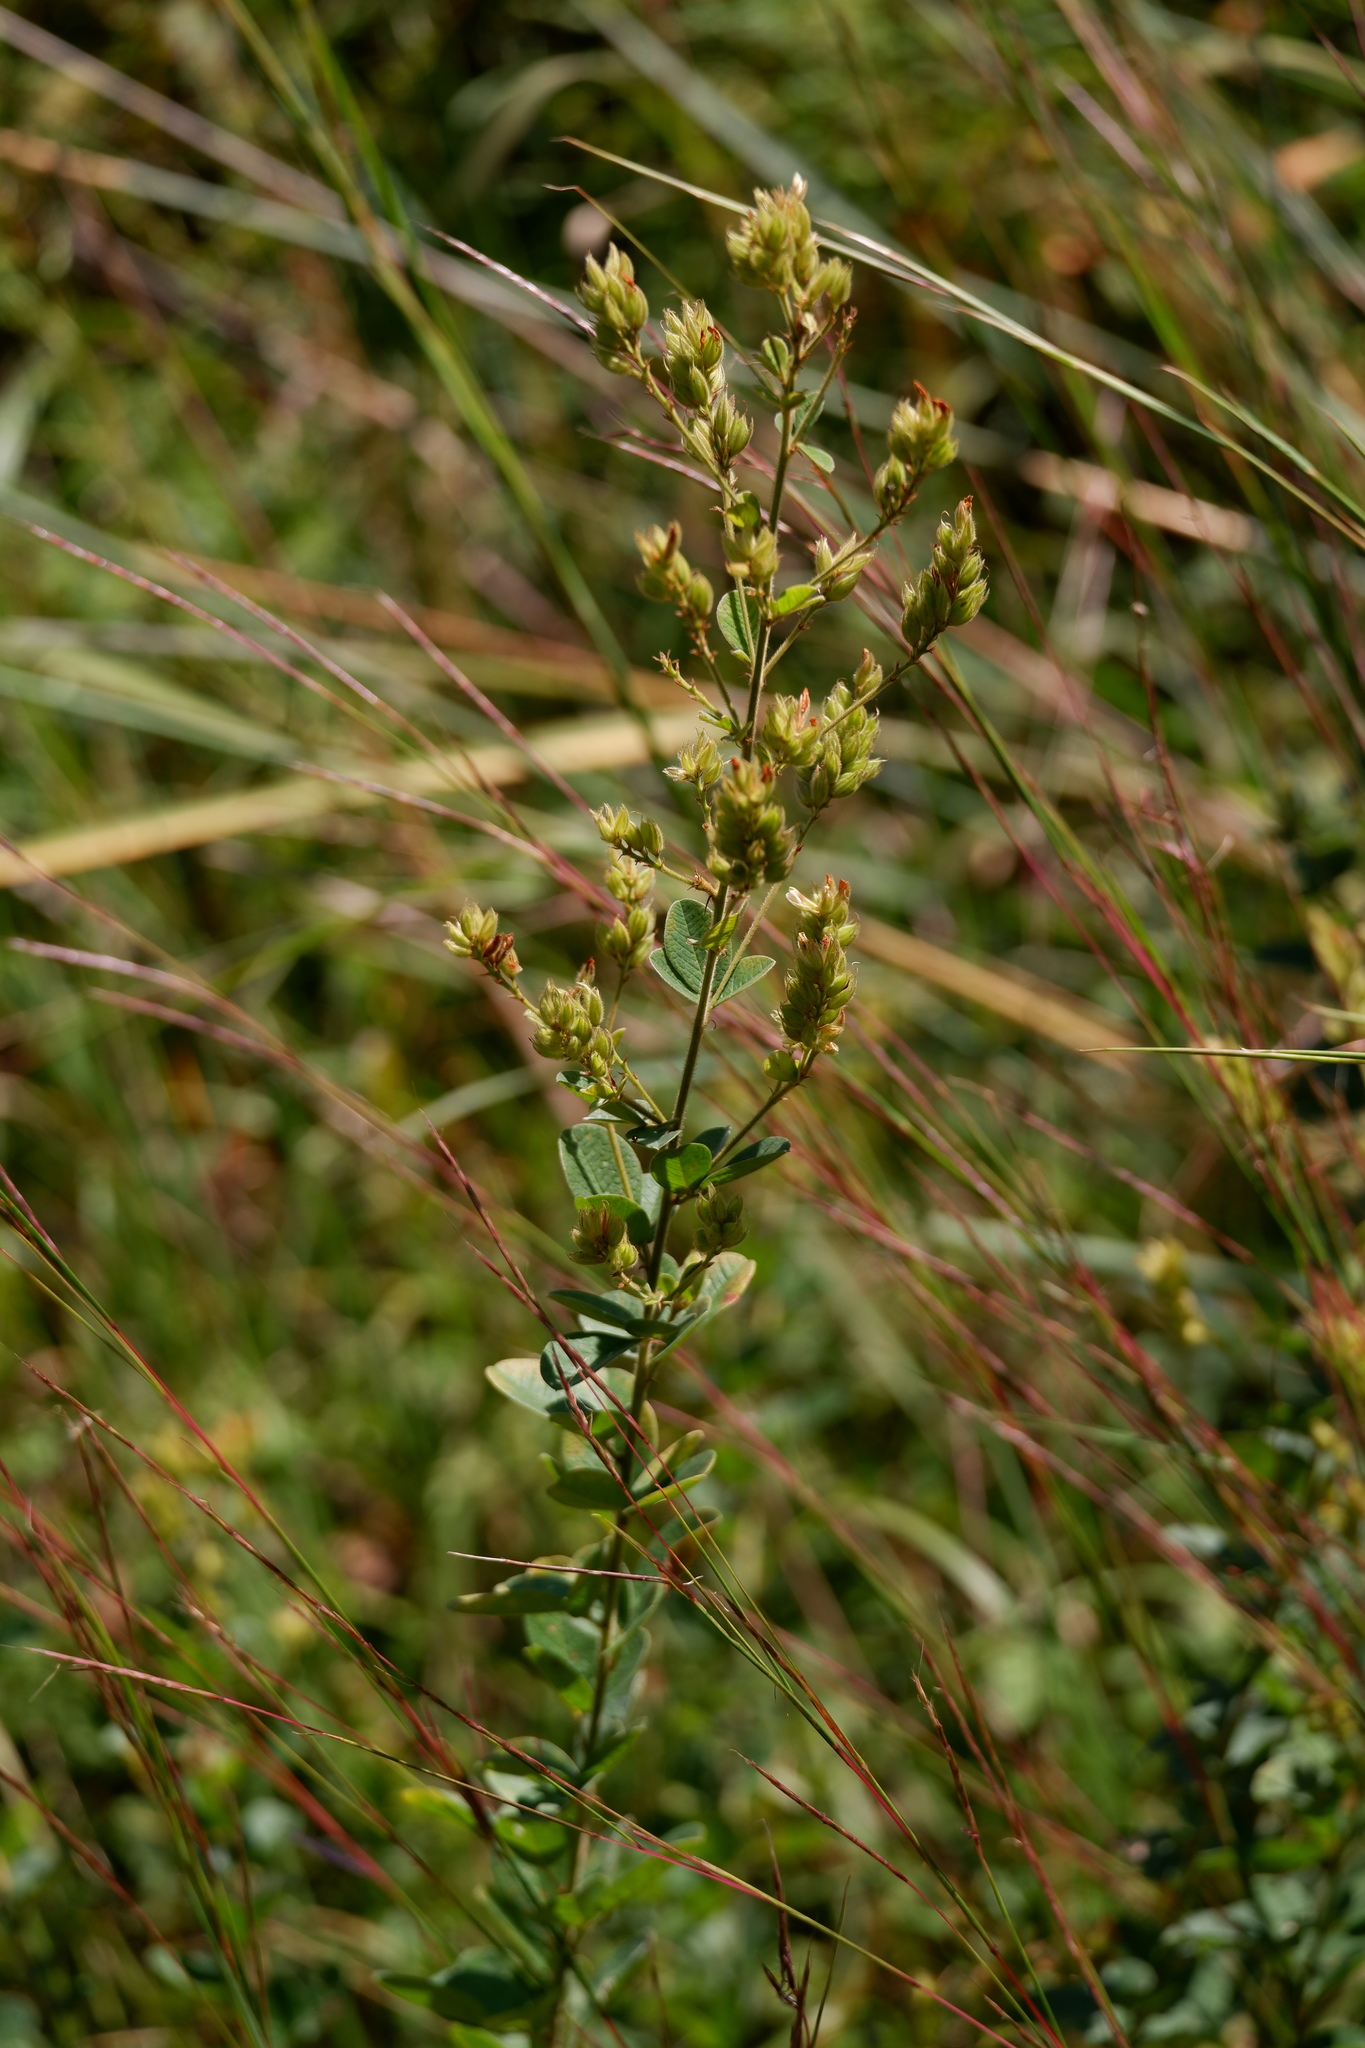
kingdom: Plantae
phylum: Tracheophyta
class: Magnoliopsida
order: Fabales
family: Fabaceae
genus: Lespedeza
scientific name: Lespedeza hirta
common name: Hairy lespedeza
